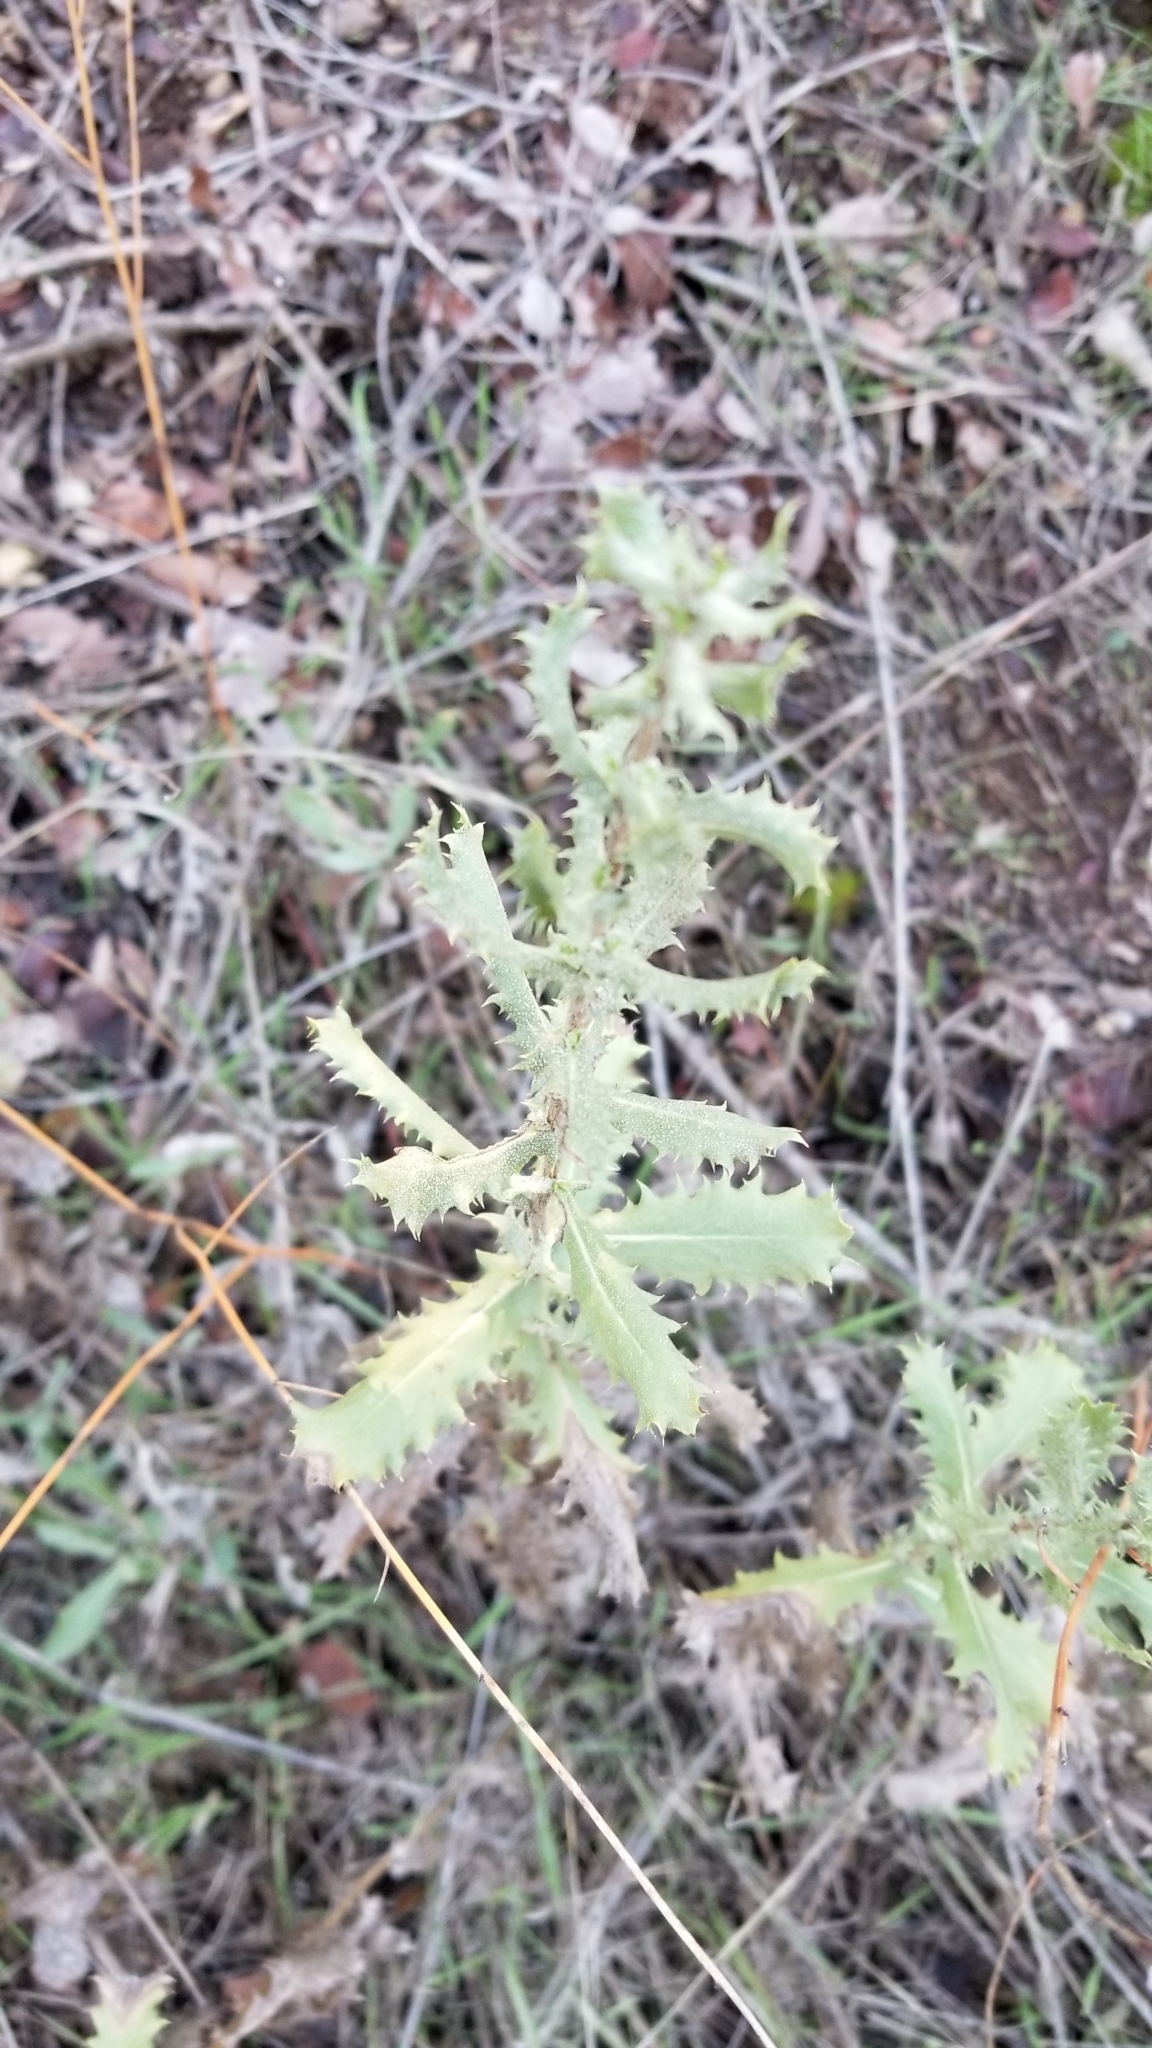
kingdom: Plantae
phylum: Tracheophyta
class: Magnoliopsida
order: Asterales
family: Asteraceae
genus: Hazardia
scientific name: Hazardia squarrosa
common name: Saw-tooth goldenbush
